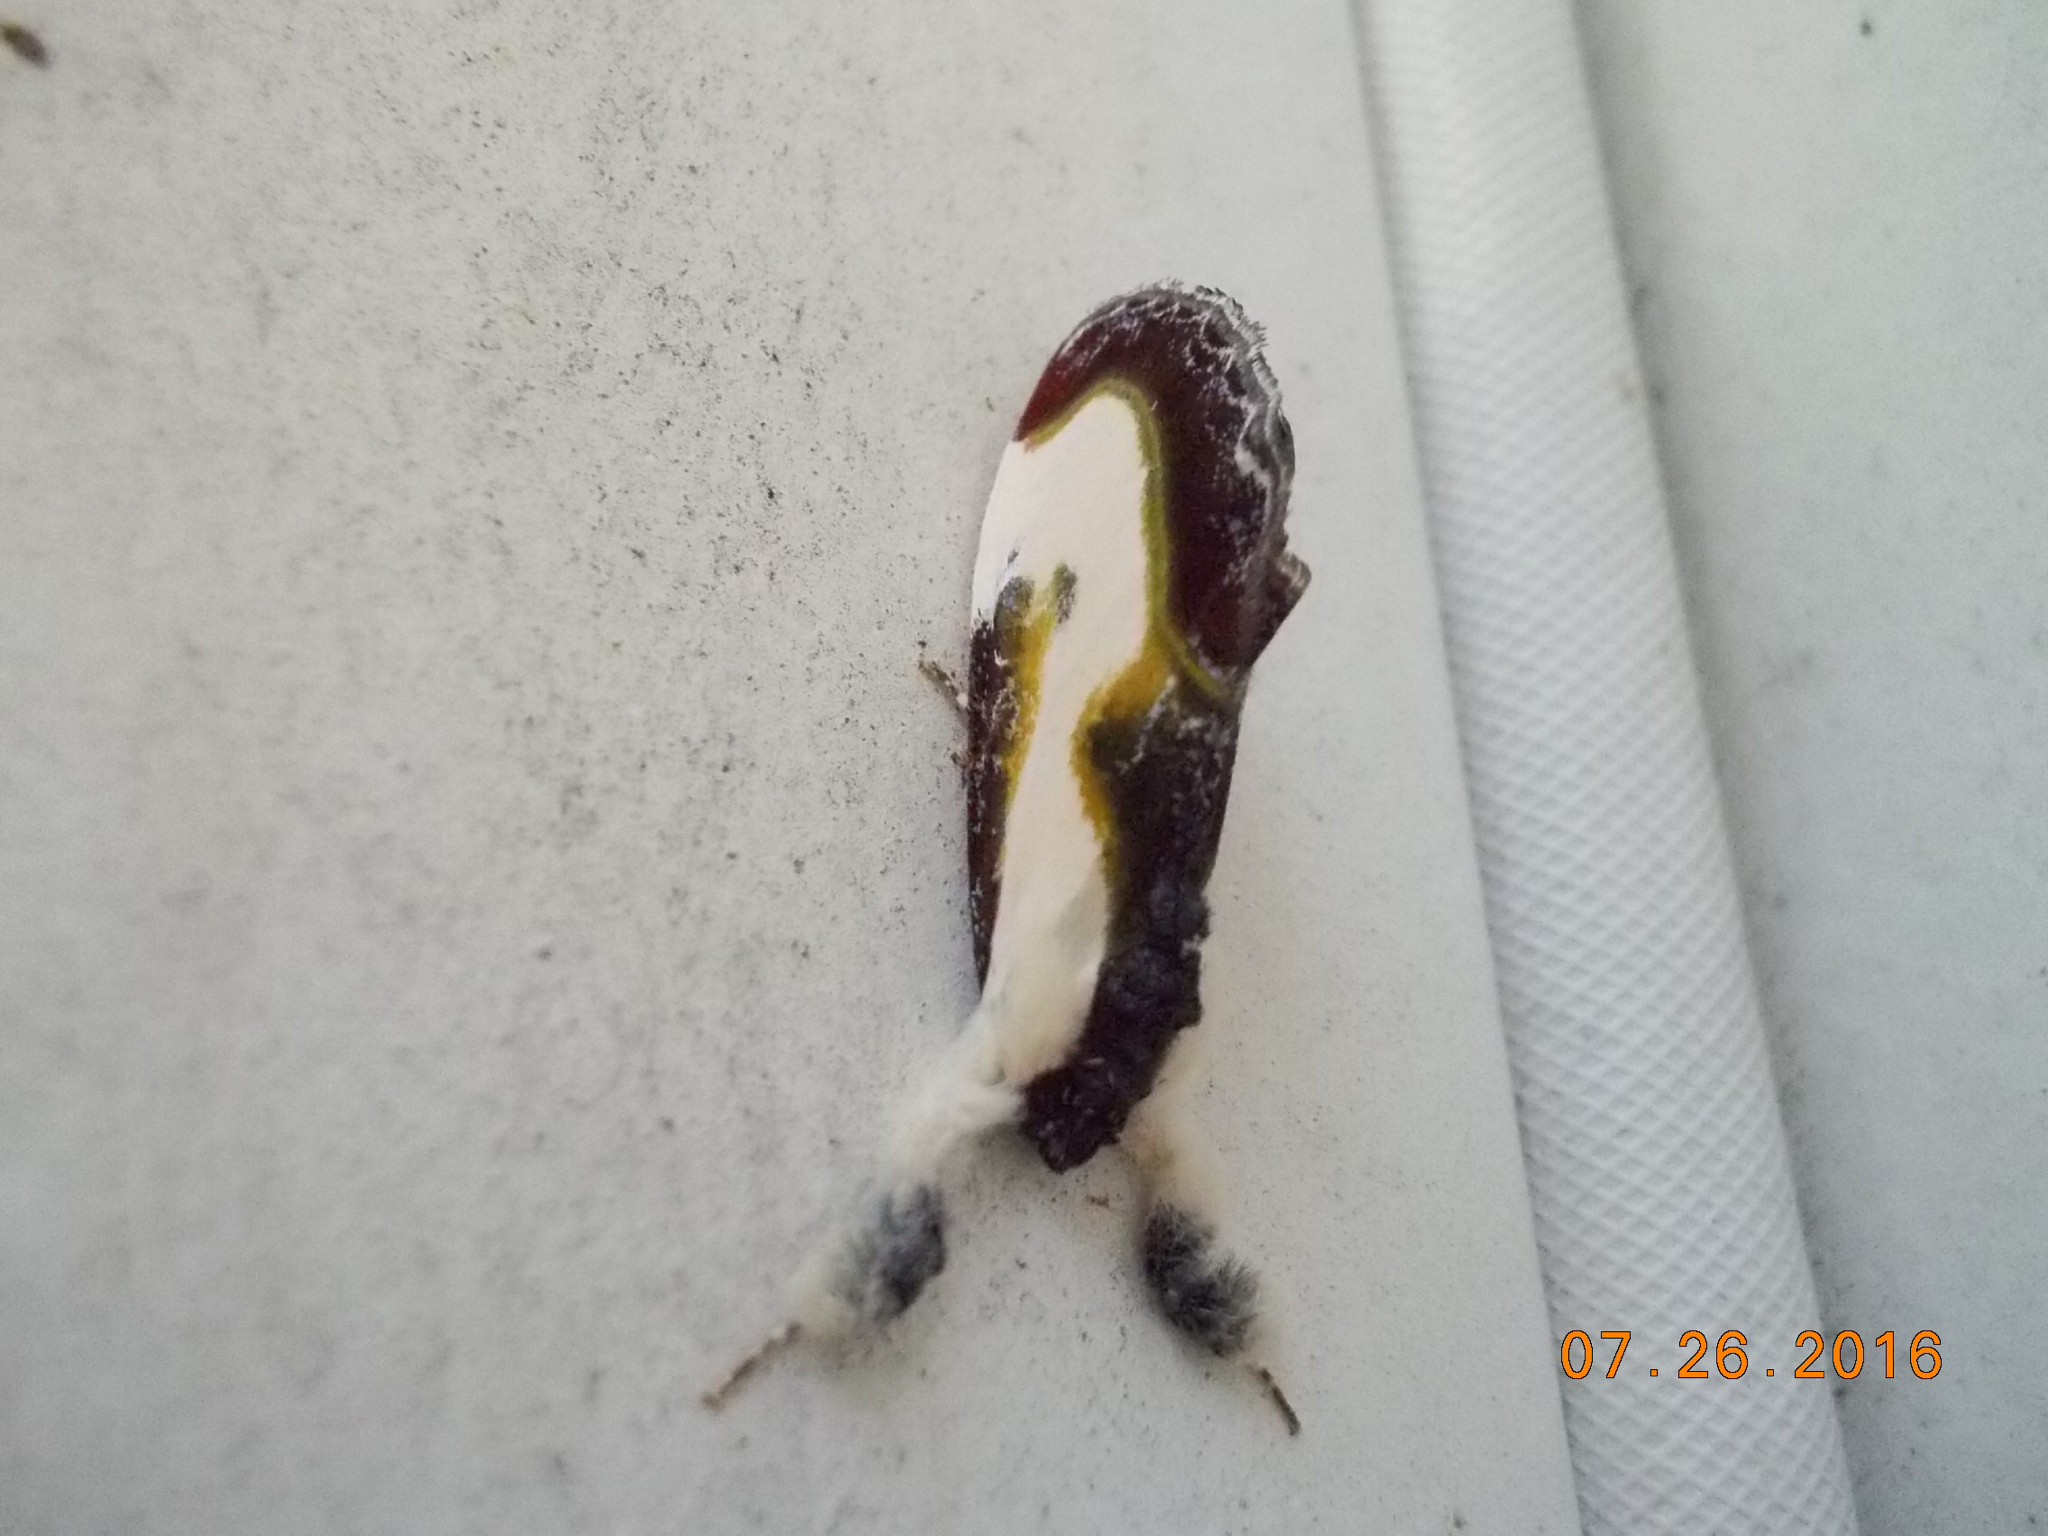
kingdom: Animalia
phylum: Arthropoda
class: Insecta
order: Lepidoptera
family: Noctuidae
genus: Eudryas
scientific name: Eudryas grata
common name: Beautiful wood-nymph
